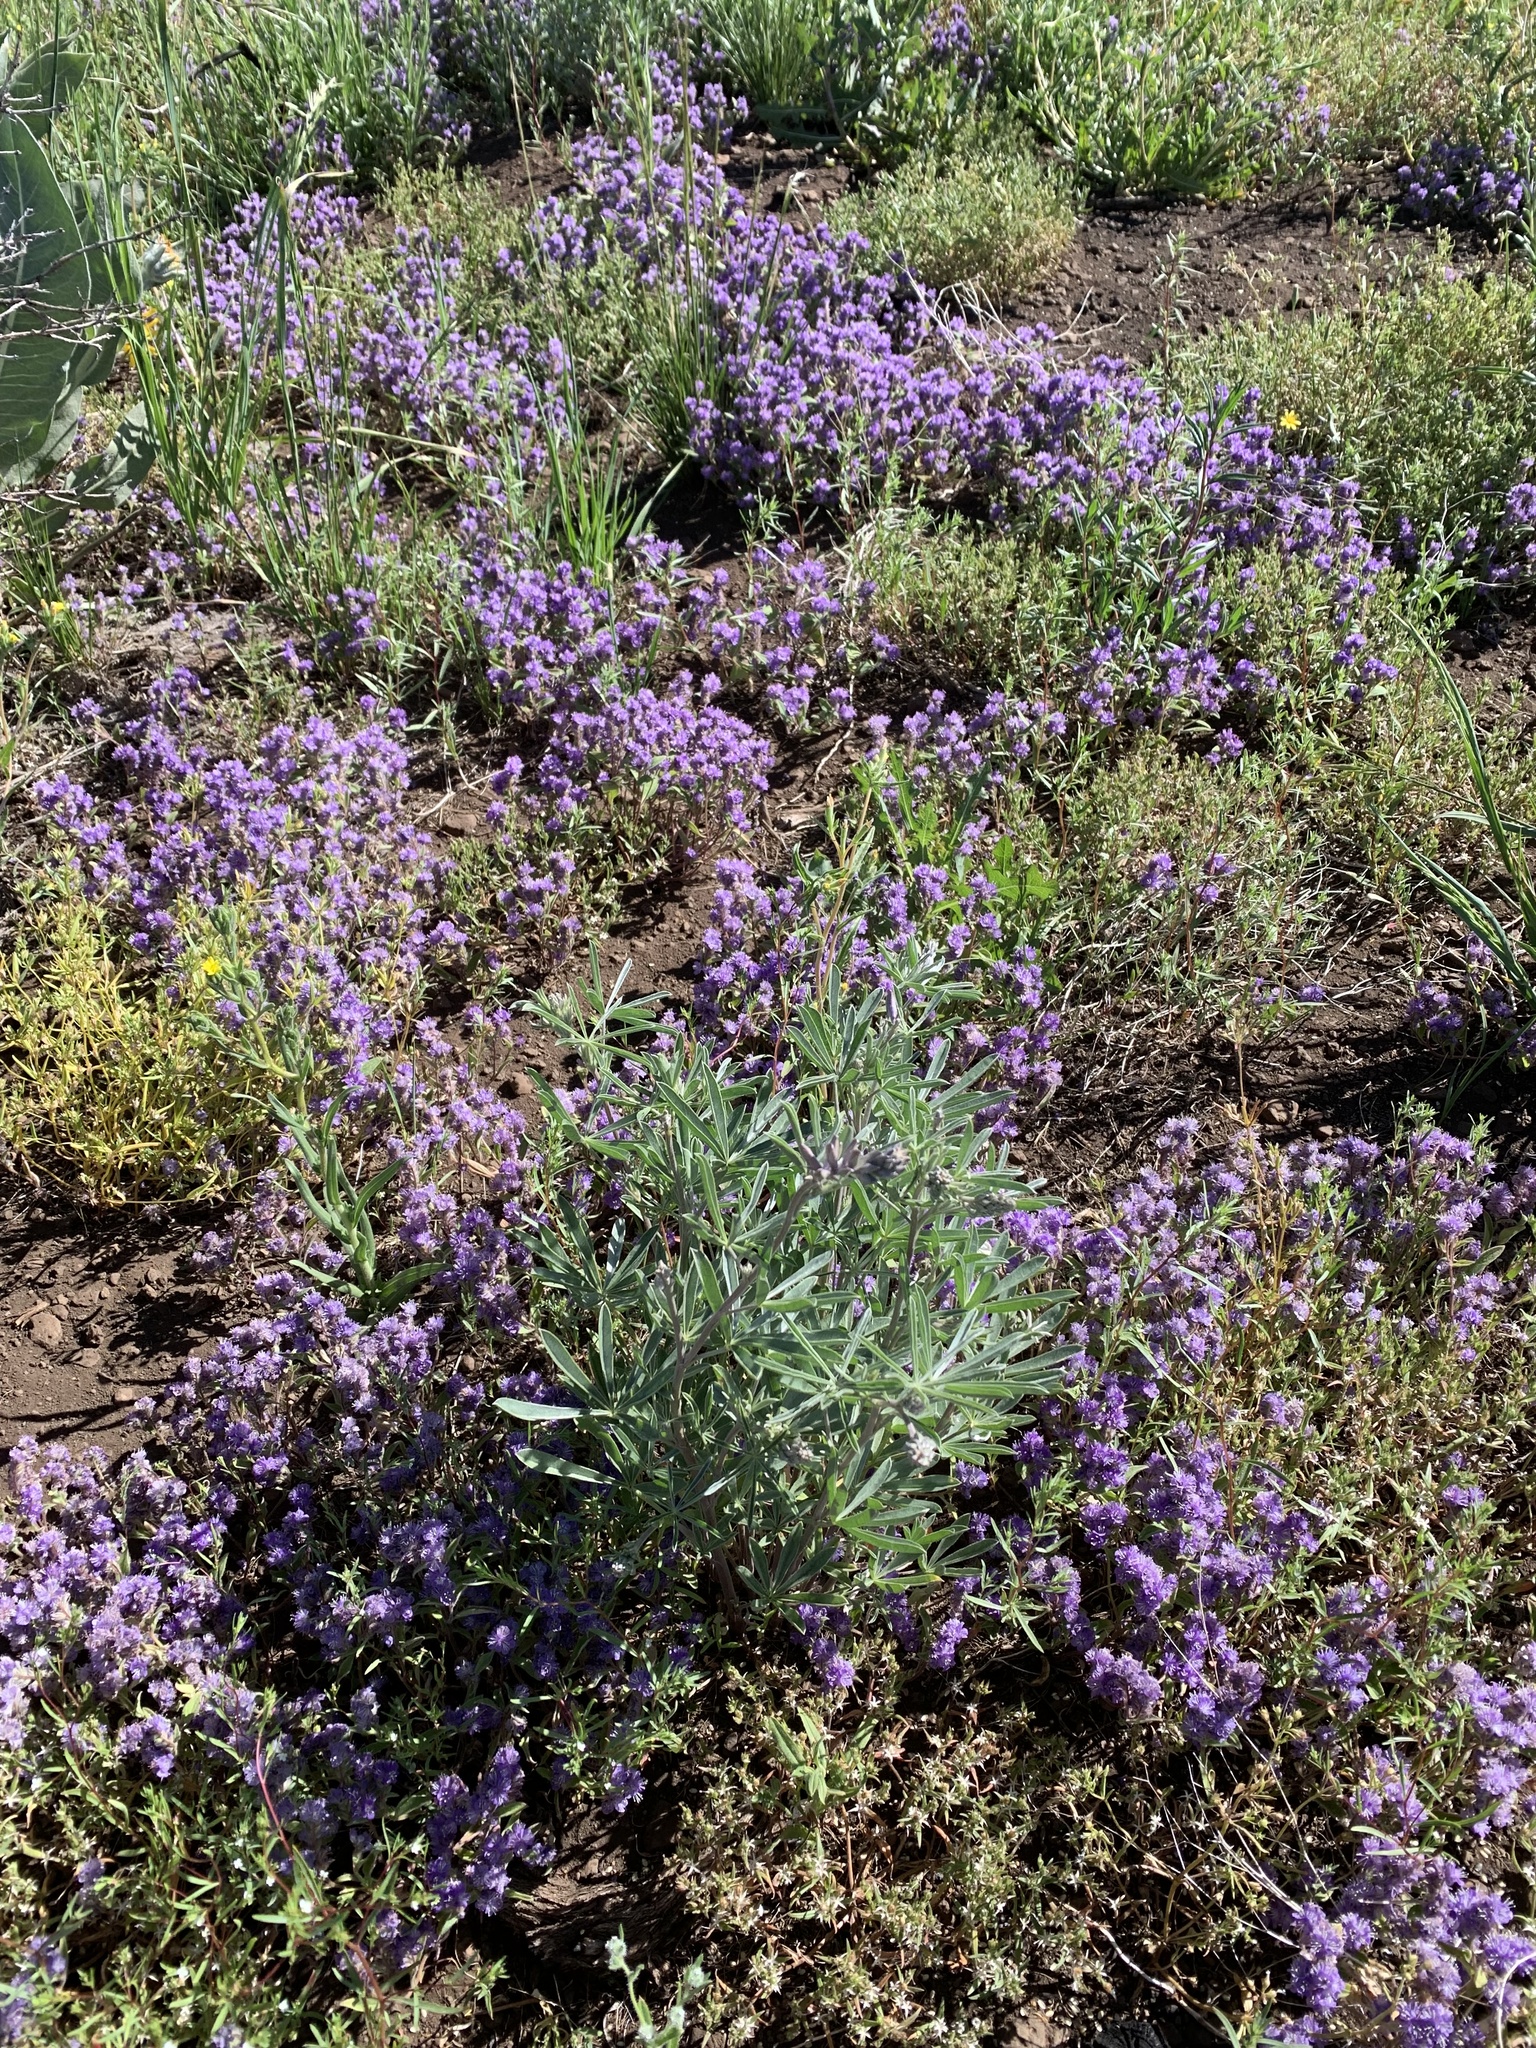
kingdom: Plantae
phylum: Tracheophyta
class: Magnoliopsida
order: Boraginales
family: Hydrophyllaceae
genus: Phacelia
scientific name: Phacelia humilis
